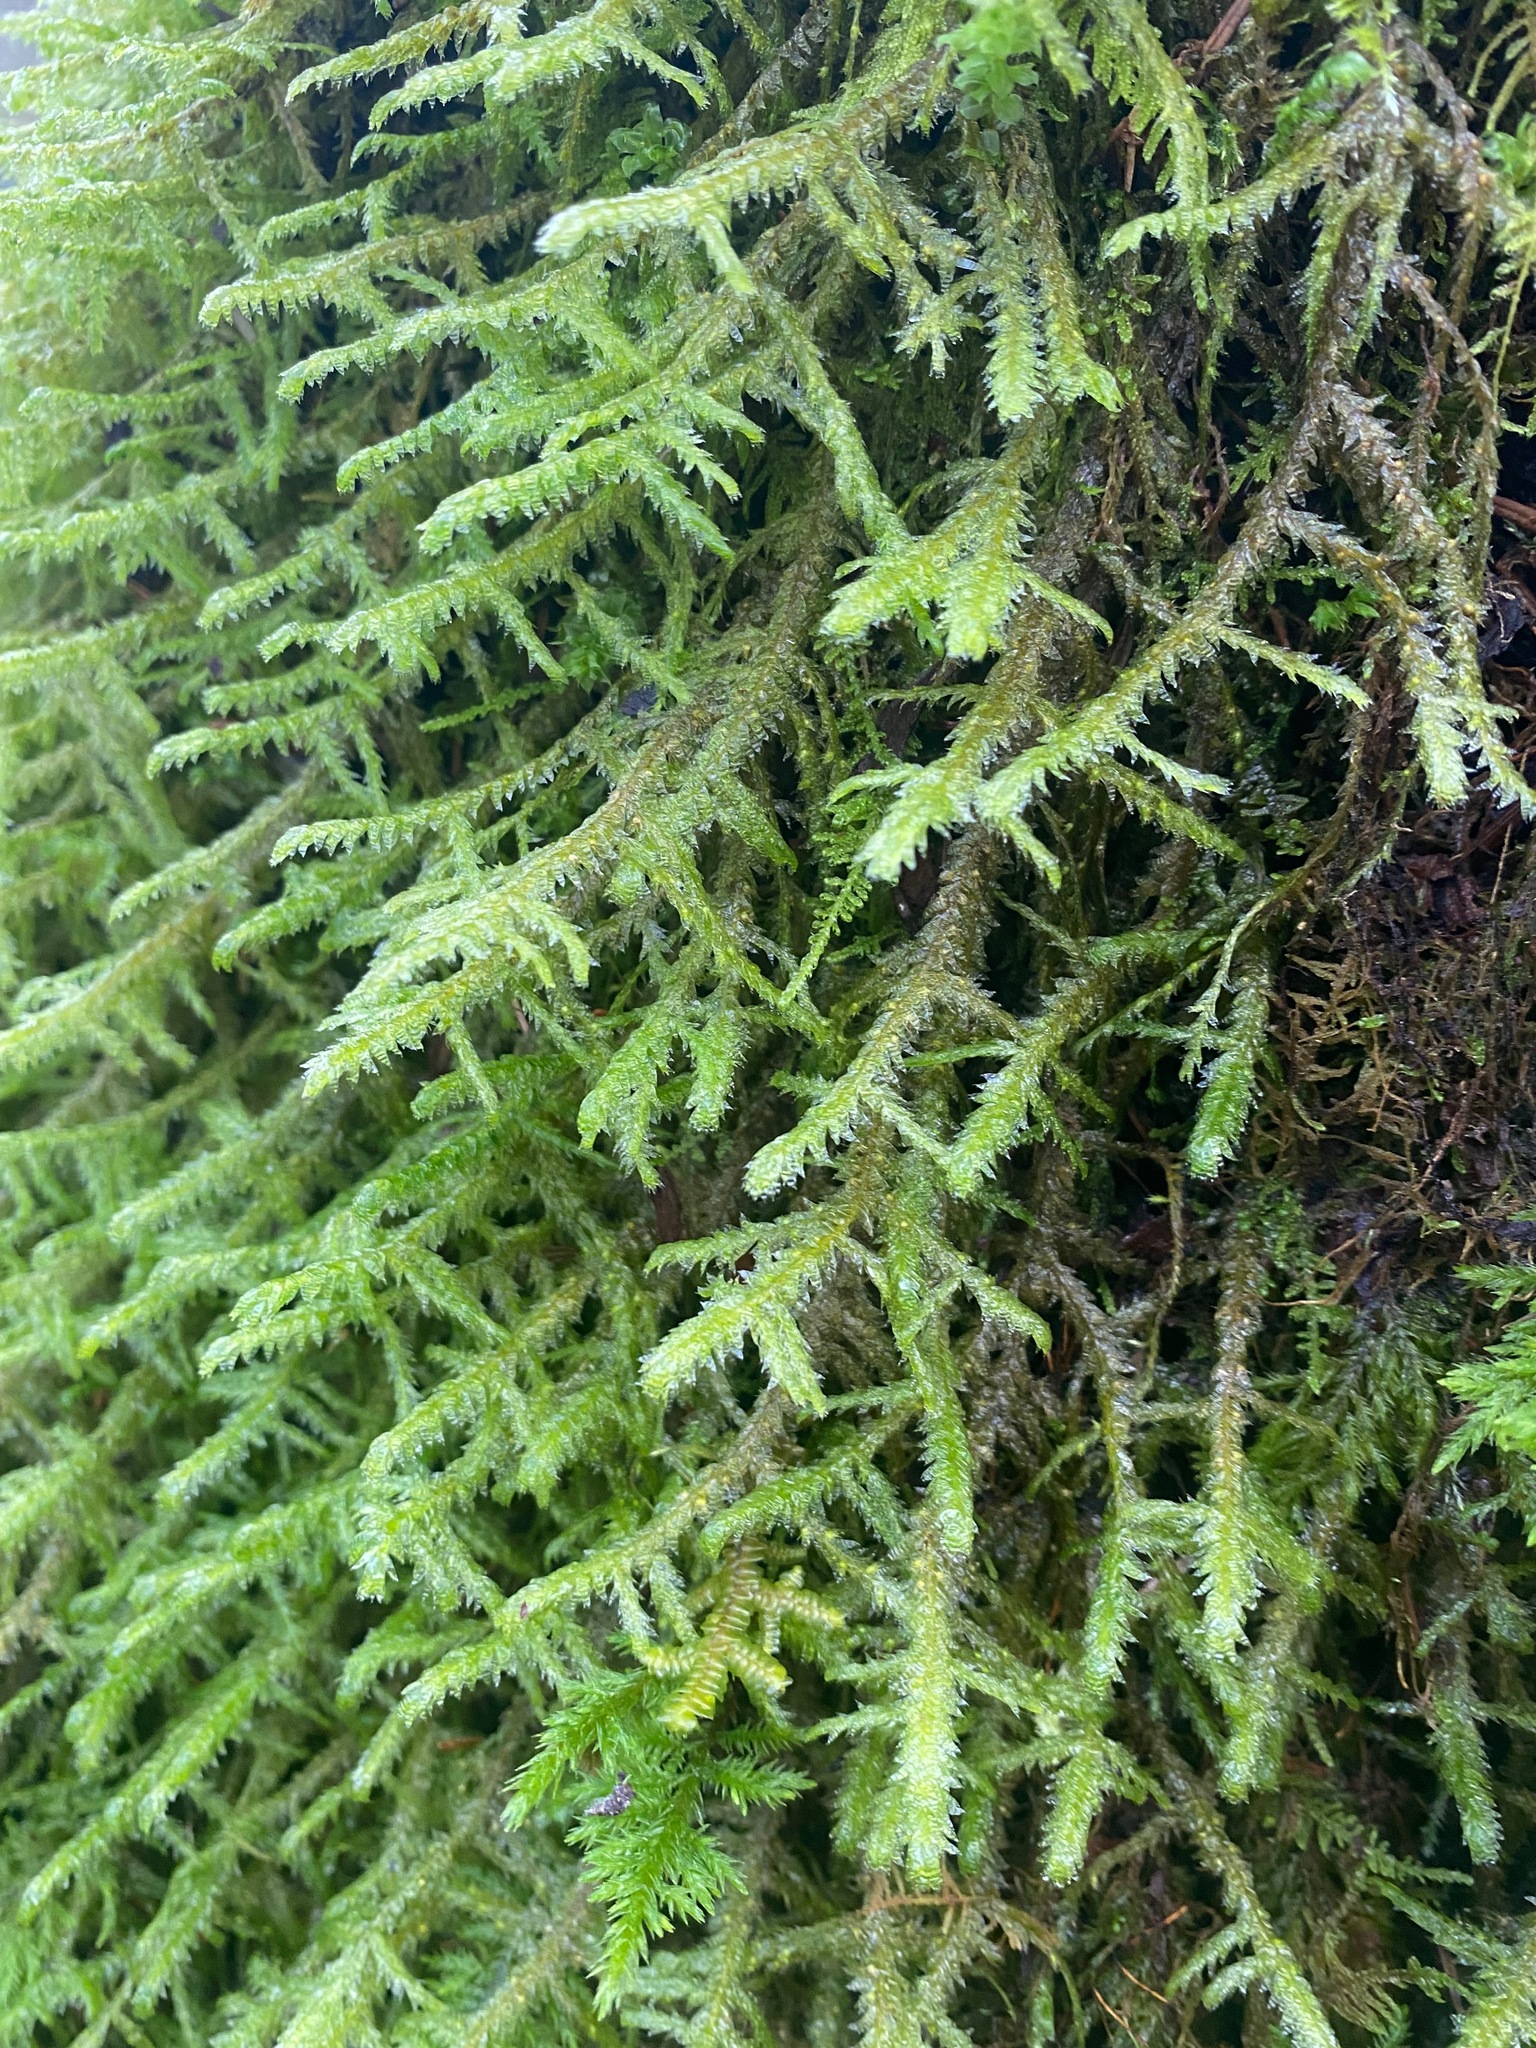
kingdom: Plantae
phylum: Bryophyta
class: Bryopsida
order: Hypnales
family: Neckeraceae
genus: Neckera
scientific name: Neckera douglasii
